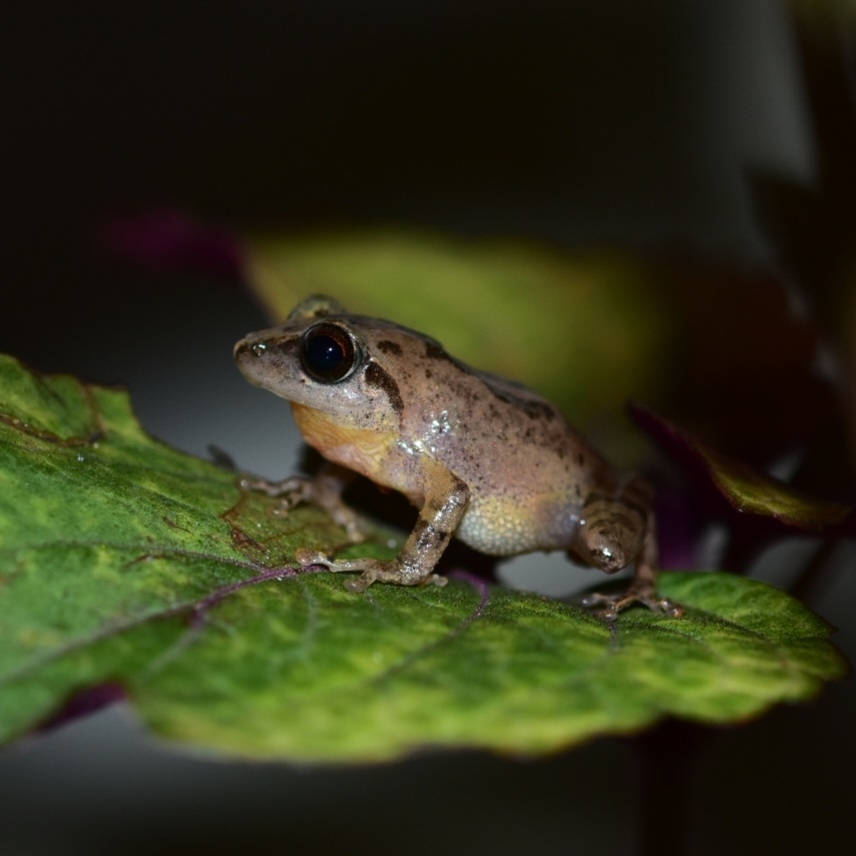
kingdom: Animalia
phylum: Chordata
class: Amphibia
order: Anura
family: Rhacophoridae
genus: Pseudophilautus
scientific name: Pseudophilautus wynaadensis
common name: Dark-eared bush frog
